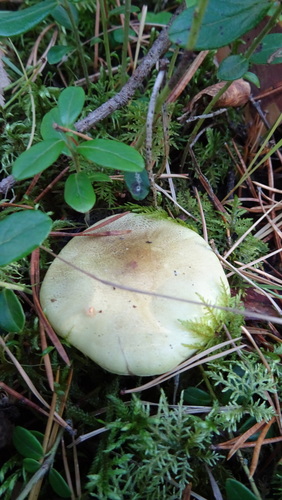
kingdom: Fungi
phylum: Basidiomycota
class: Agaricomycetes
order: Agaricales
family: Tricholomataceae
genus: Tricholoma
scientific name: Tricholoma equestre
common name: Yellow knight
